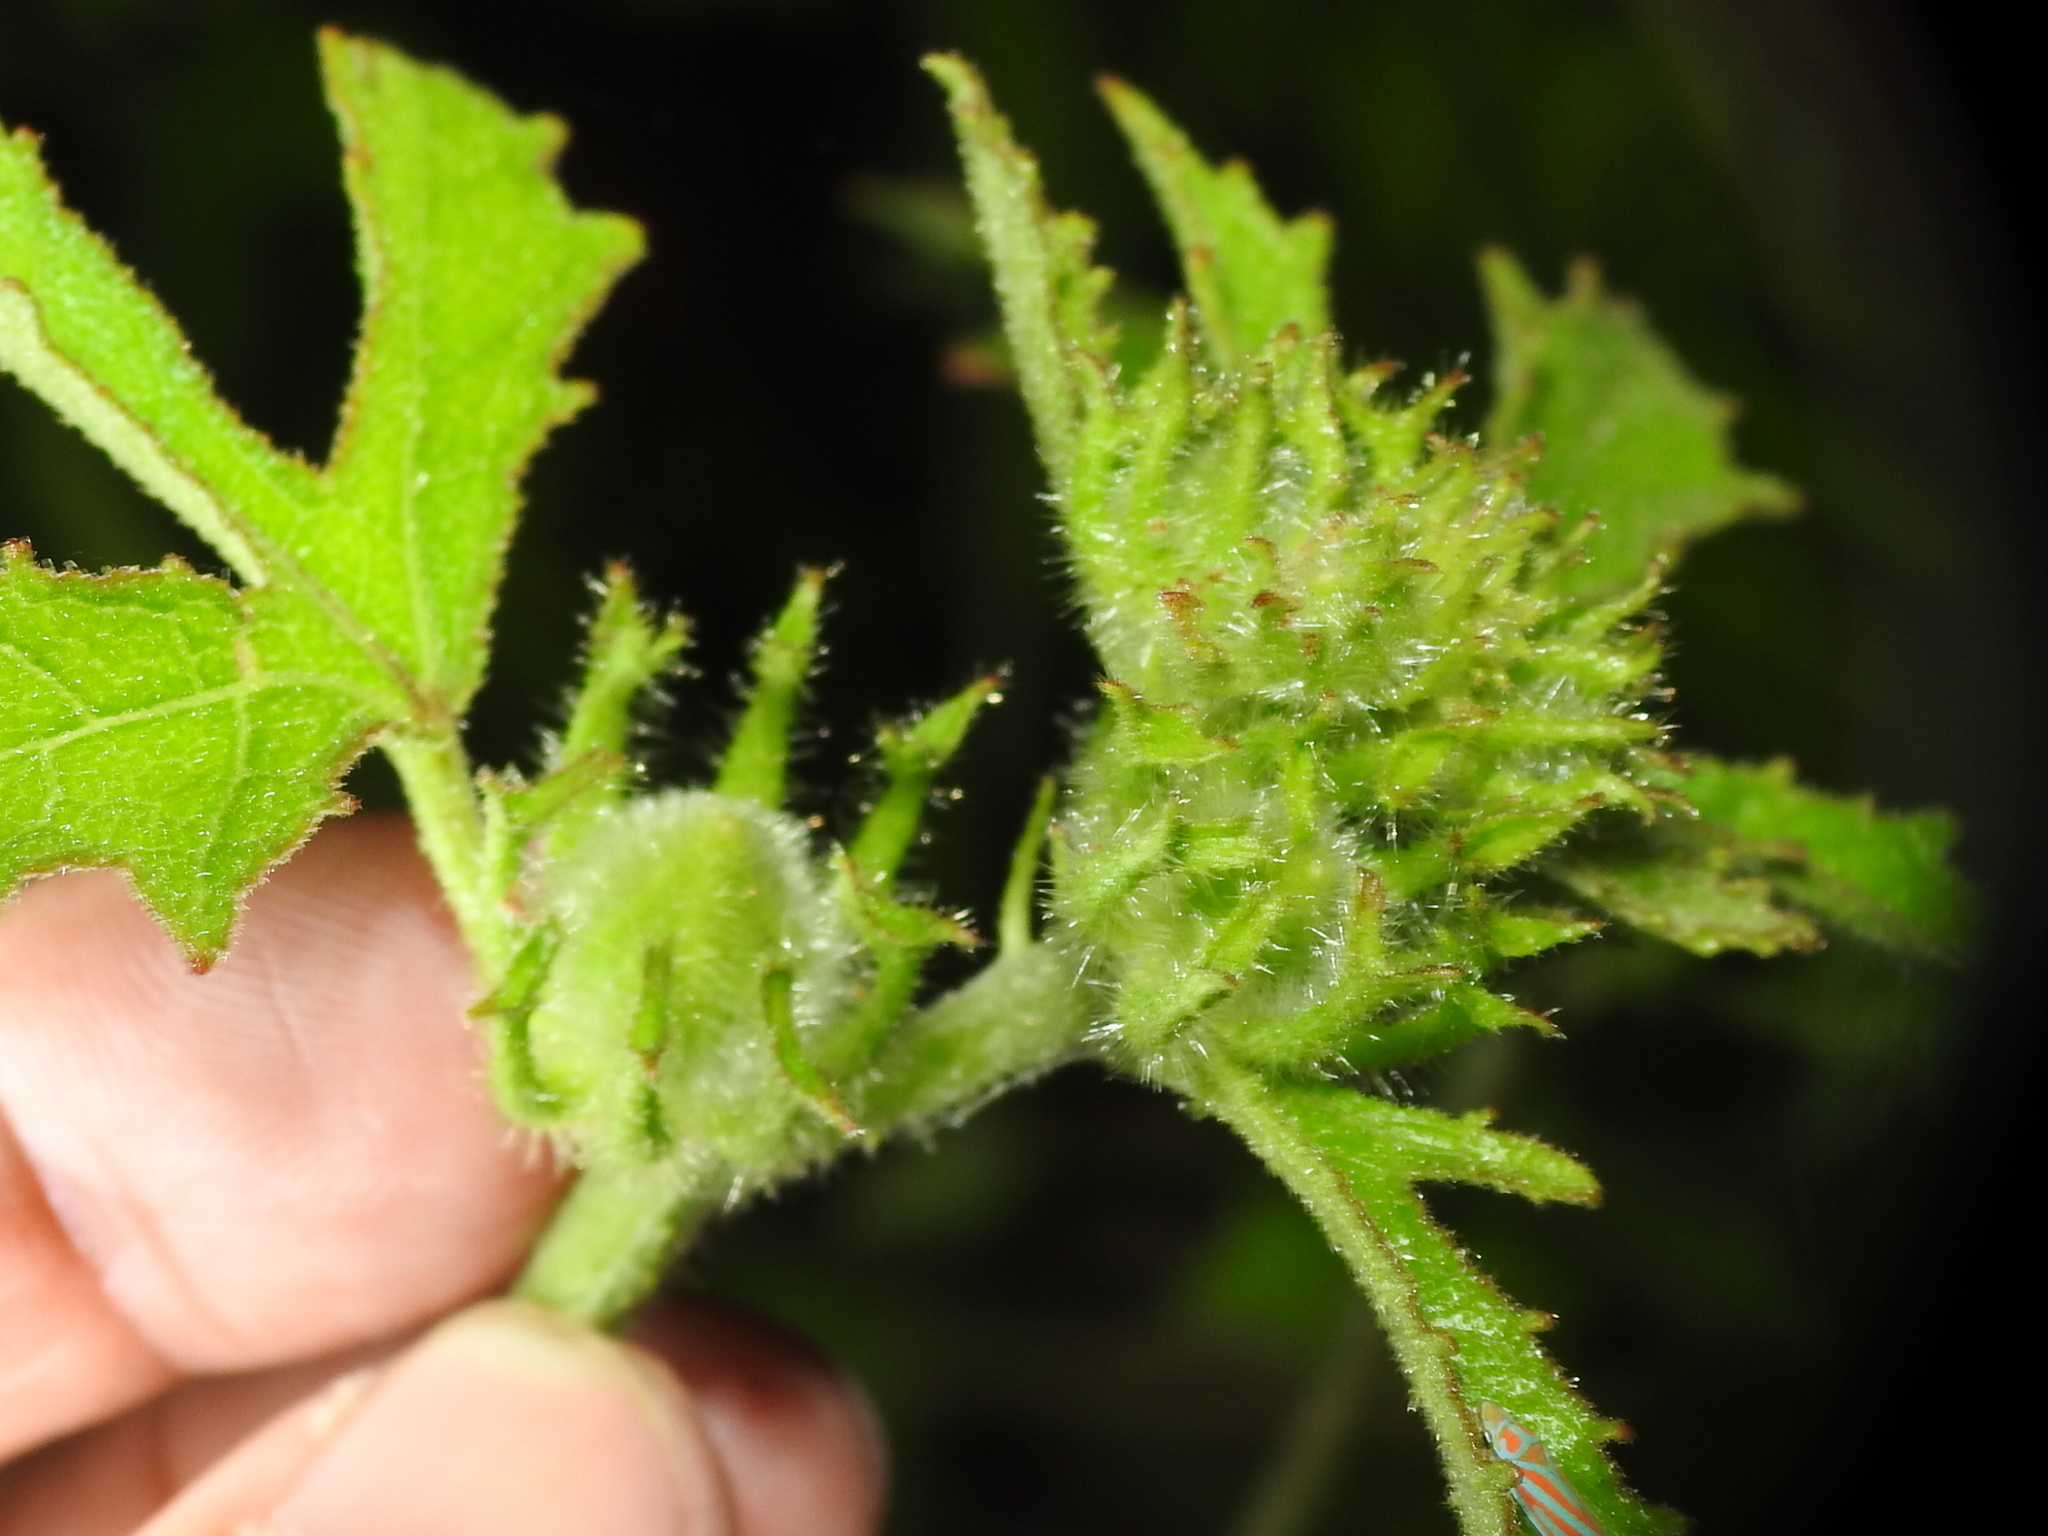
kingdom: Plantae
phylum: Tracheophyta
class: Magnoliopsida
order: Malvales
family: Malvaceae
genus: Hibiscus
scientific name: Hibiscus aculeatus
